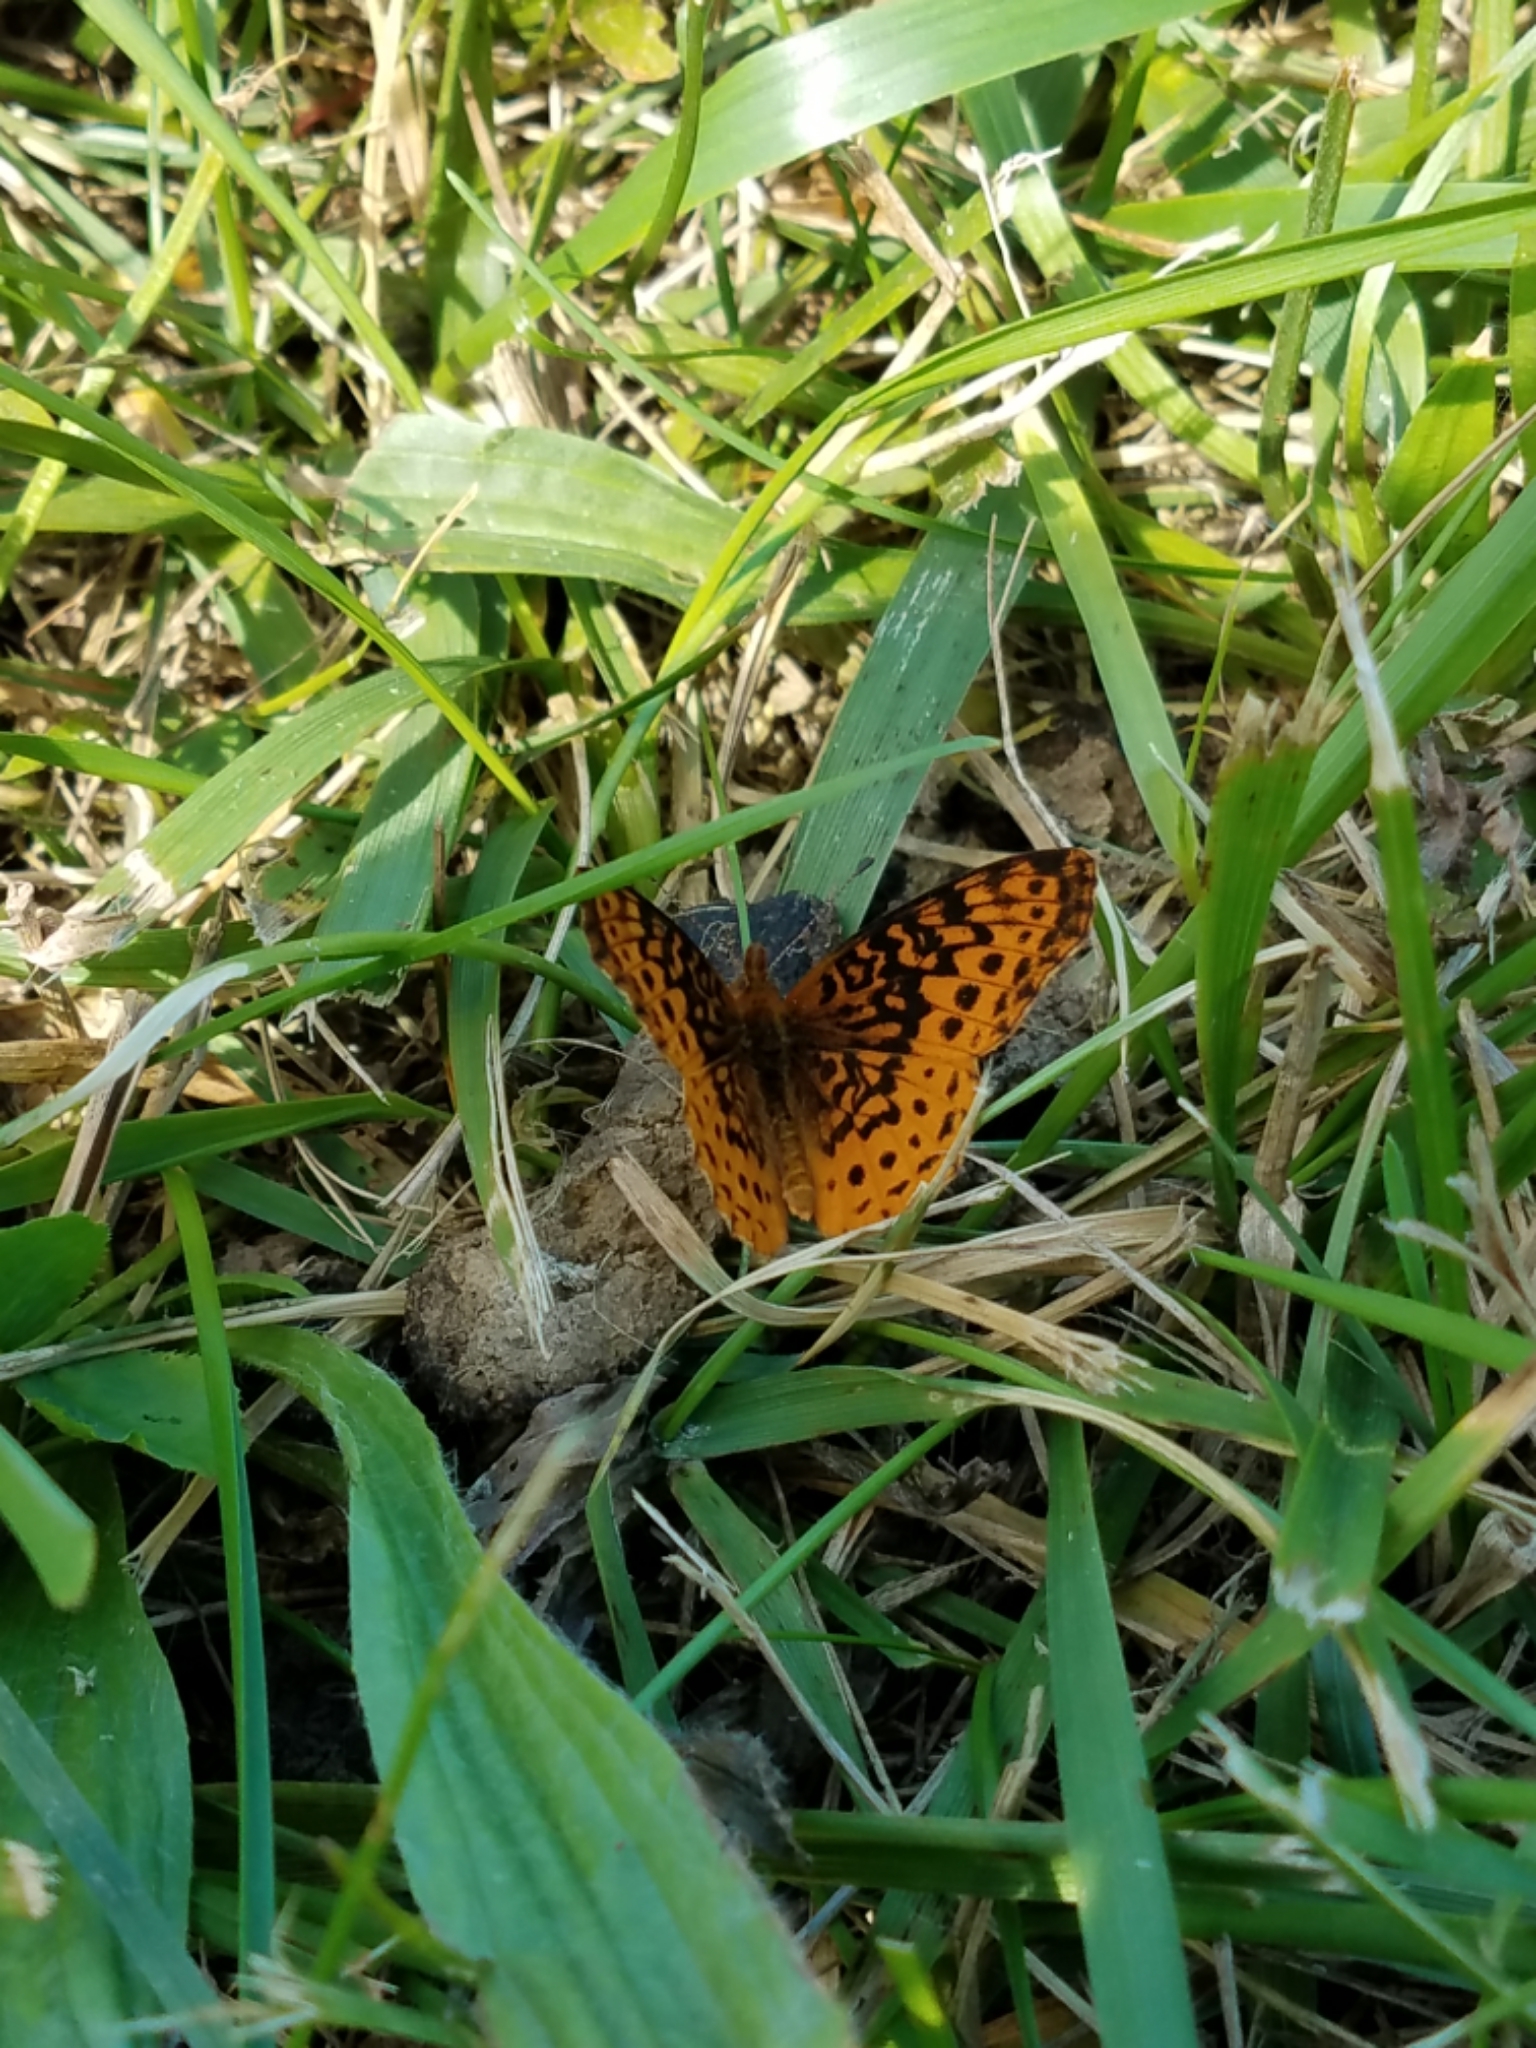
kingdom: Animalia
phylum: Arthropoda
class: Insecta
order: Lepidoptera
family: Nymphalidae
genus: Clossiana
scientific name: Clossiana toddi
